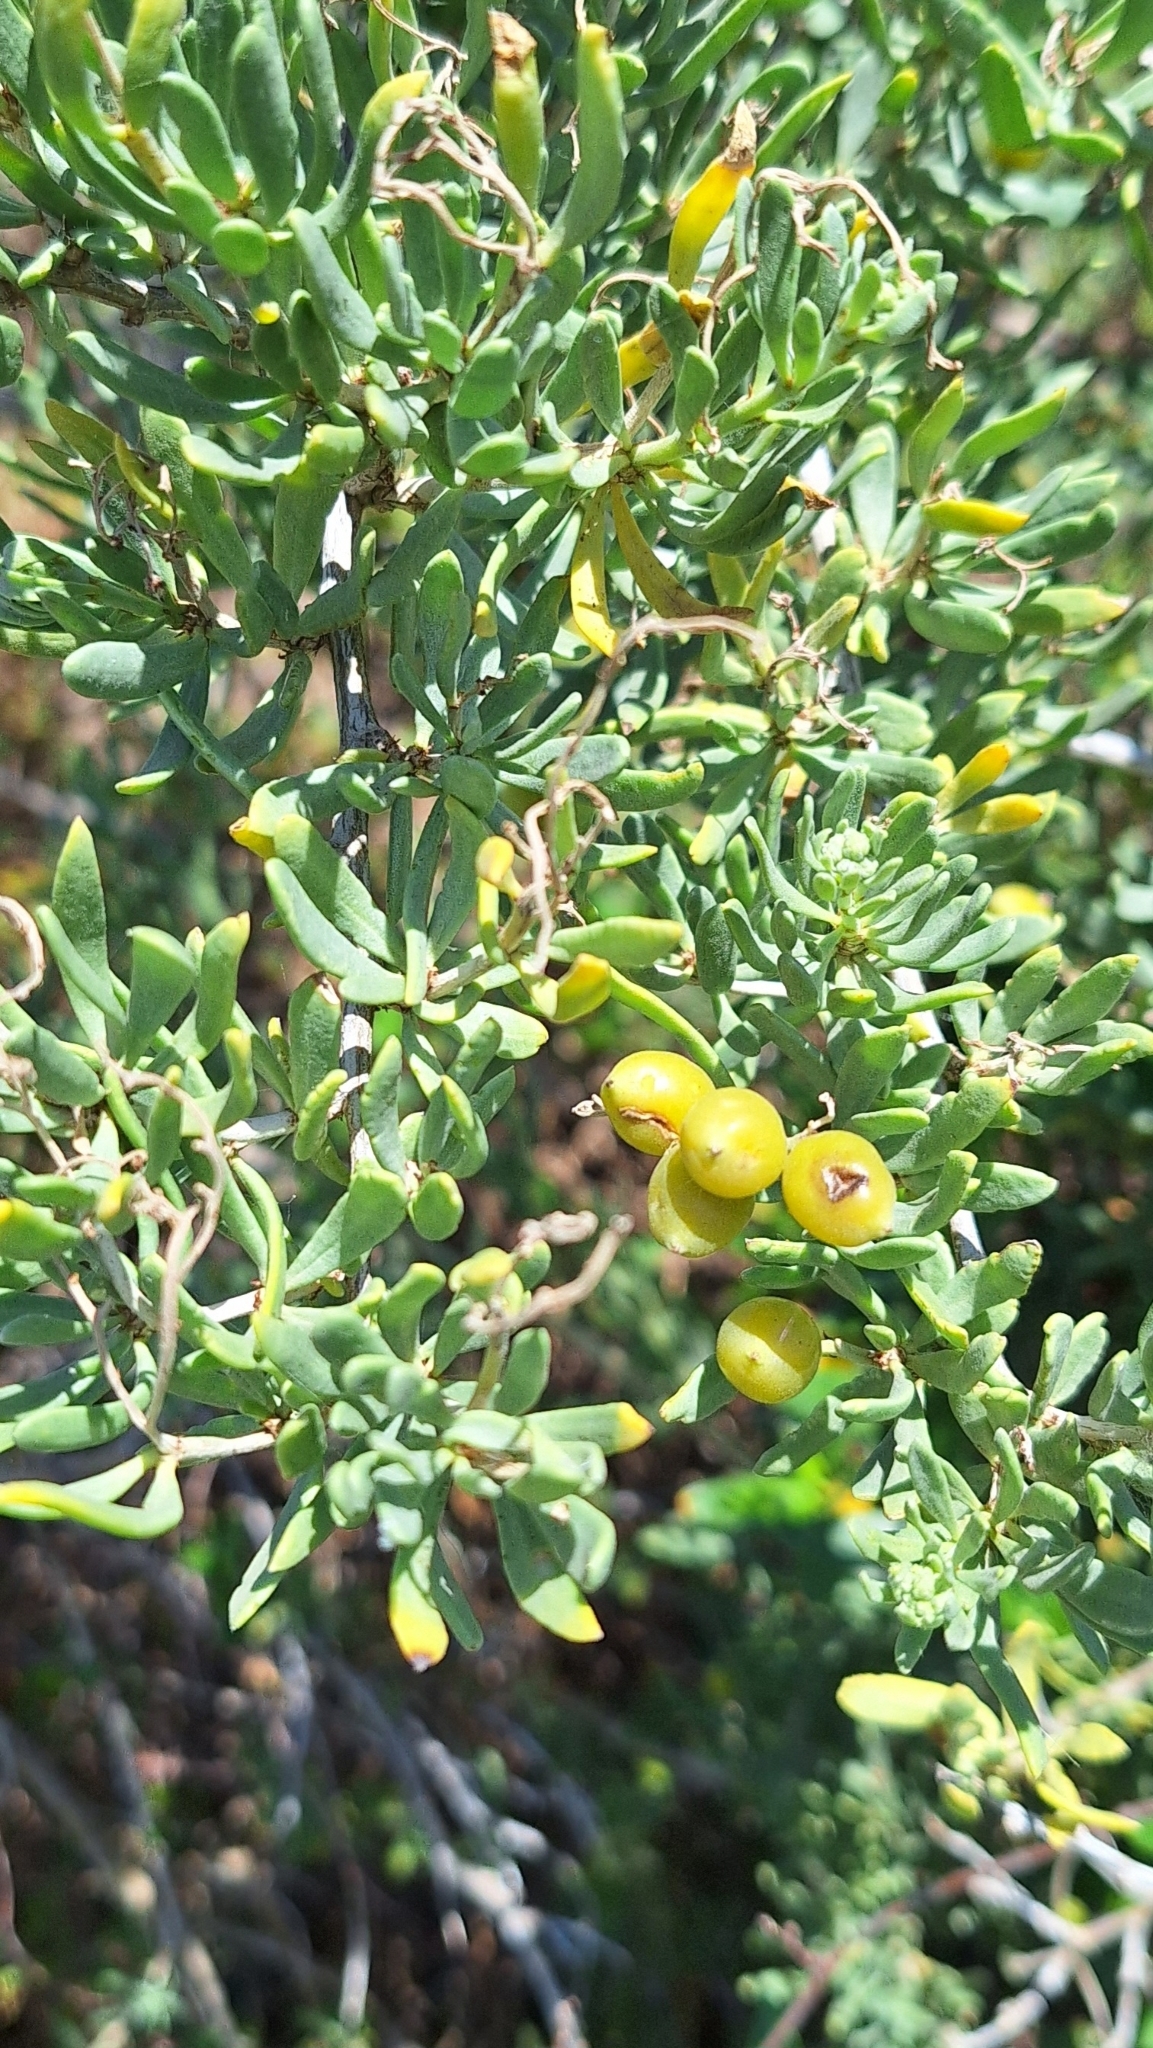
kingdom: Plantae
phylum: Tracheophyta
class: Magnoliopsida
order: Sapindales
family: Nitrariaceae
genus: Nitraria
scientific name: Nitraria billardierei
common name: Dillonbush
